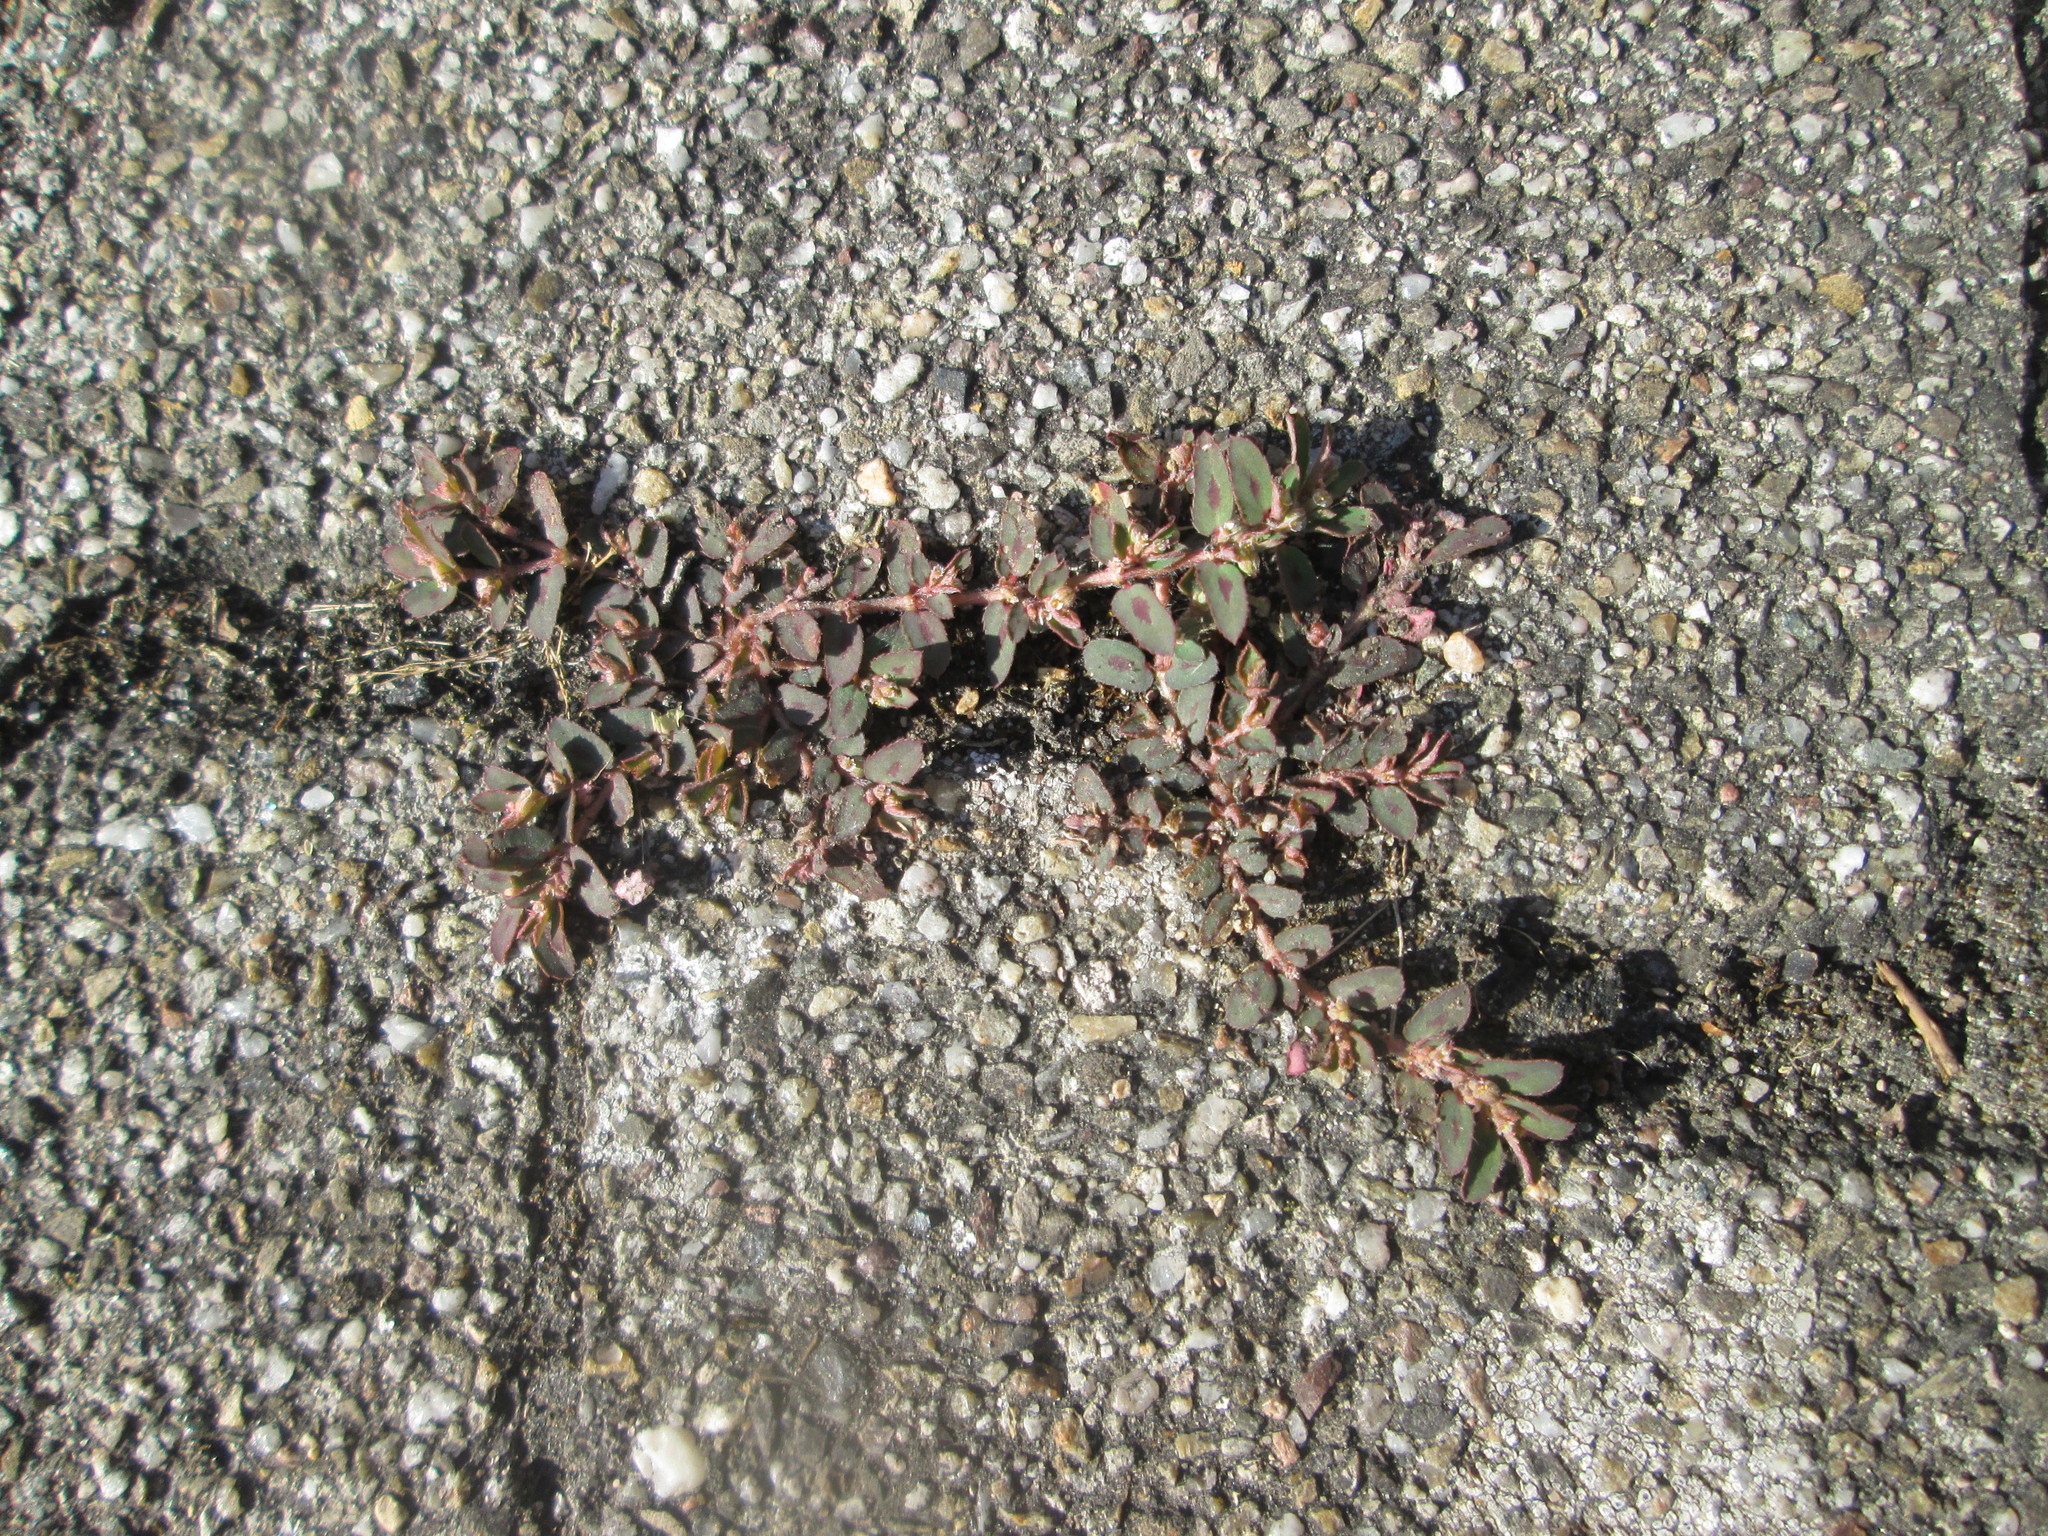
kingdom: Plantae
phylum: Tracheophyta
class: Magnoliopsida
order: Malpighiales
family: Euphorbiaceae
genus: Euphorbia
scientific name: Euphorbia maculata
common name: Spotted spurge
